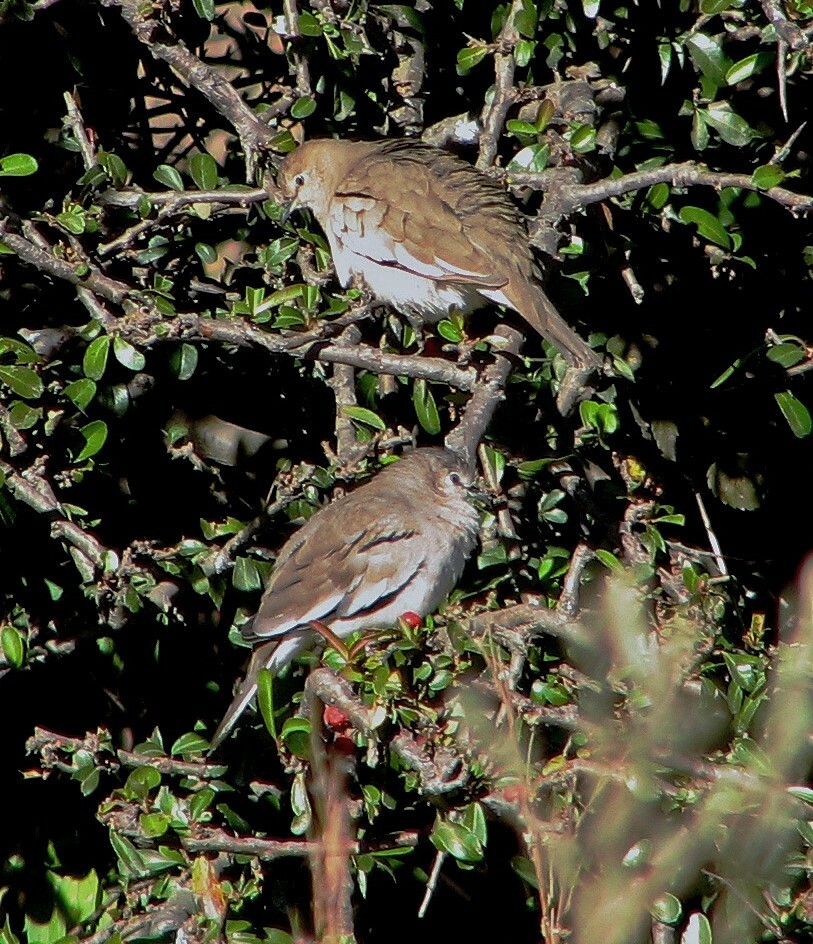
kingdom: Animalia
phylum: Chordata
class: Aves
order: Columbiformes
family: Columbidae
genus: Columbina
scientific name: Columbina picui
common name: Picui ground dove
